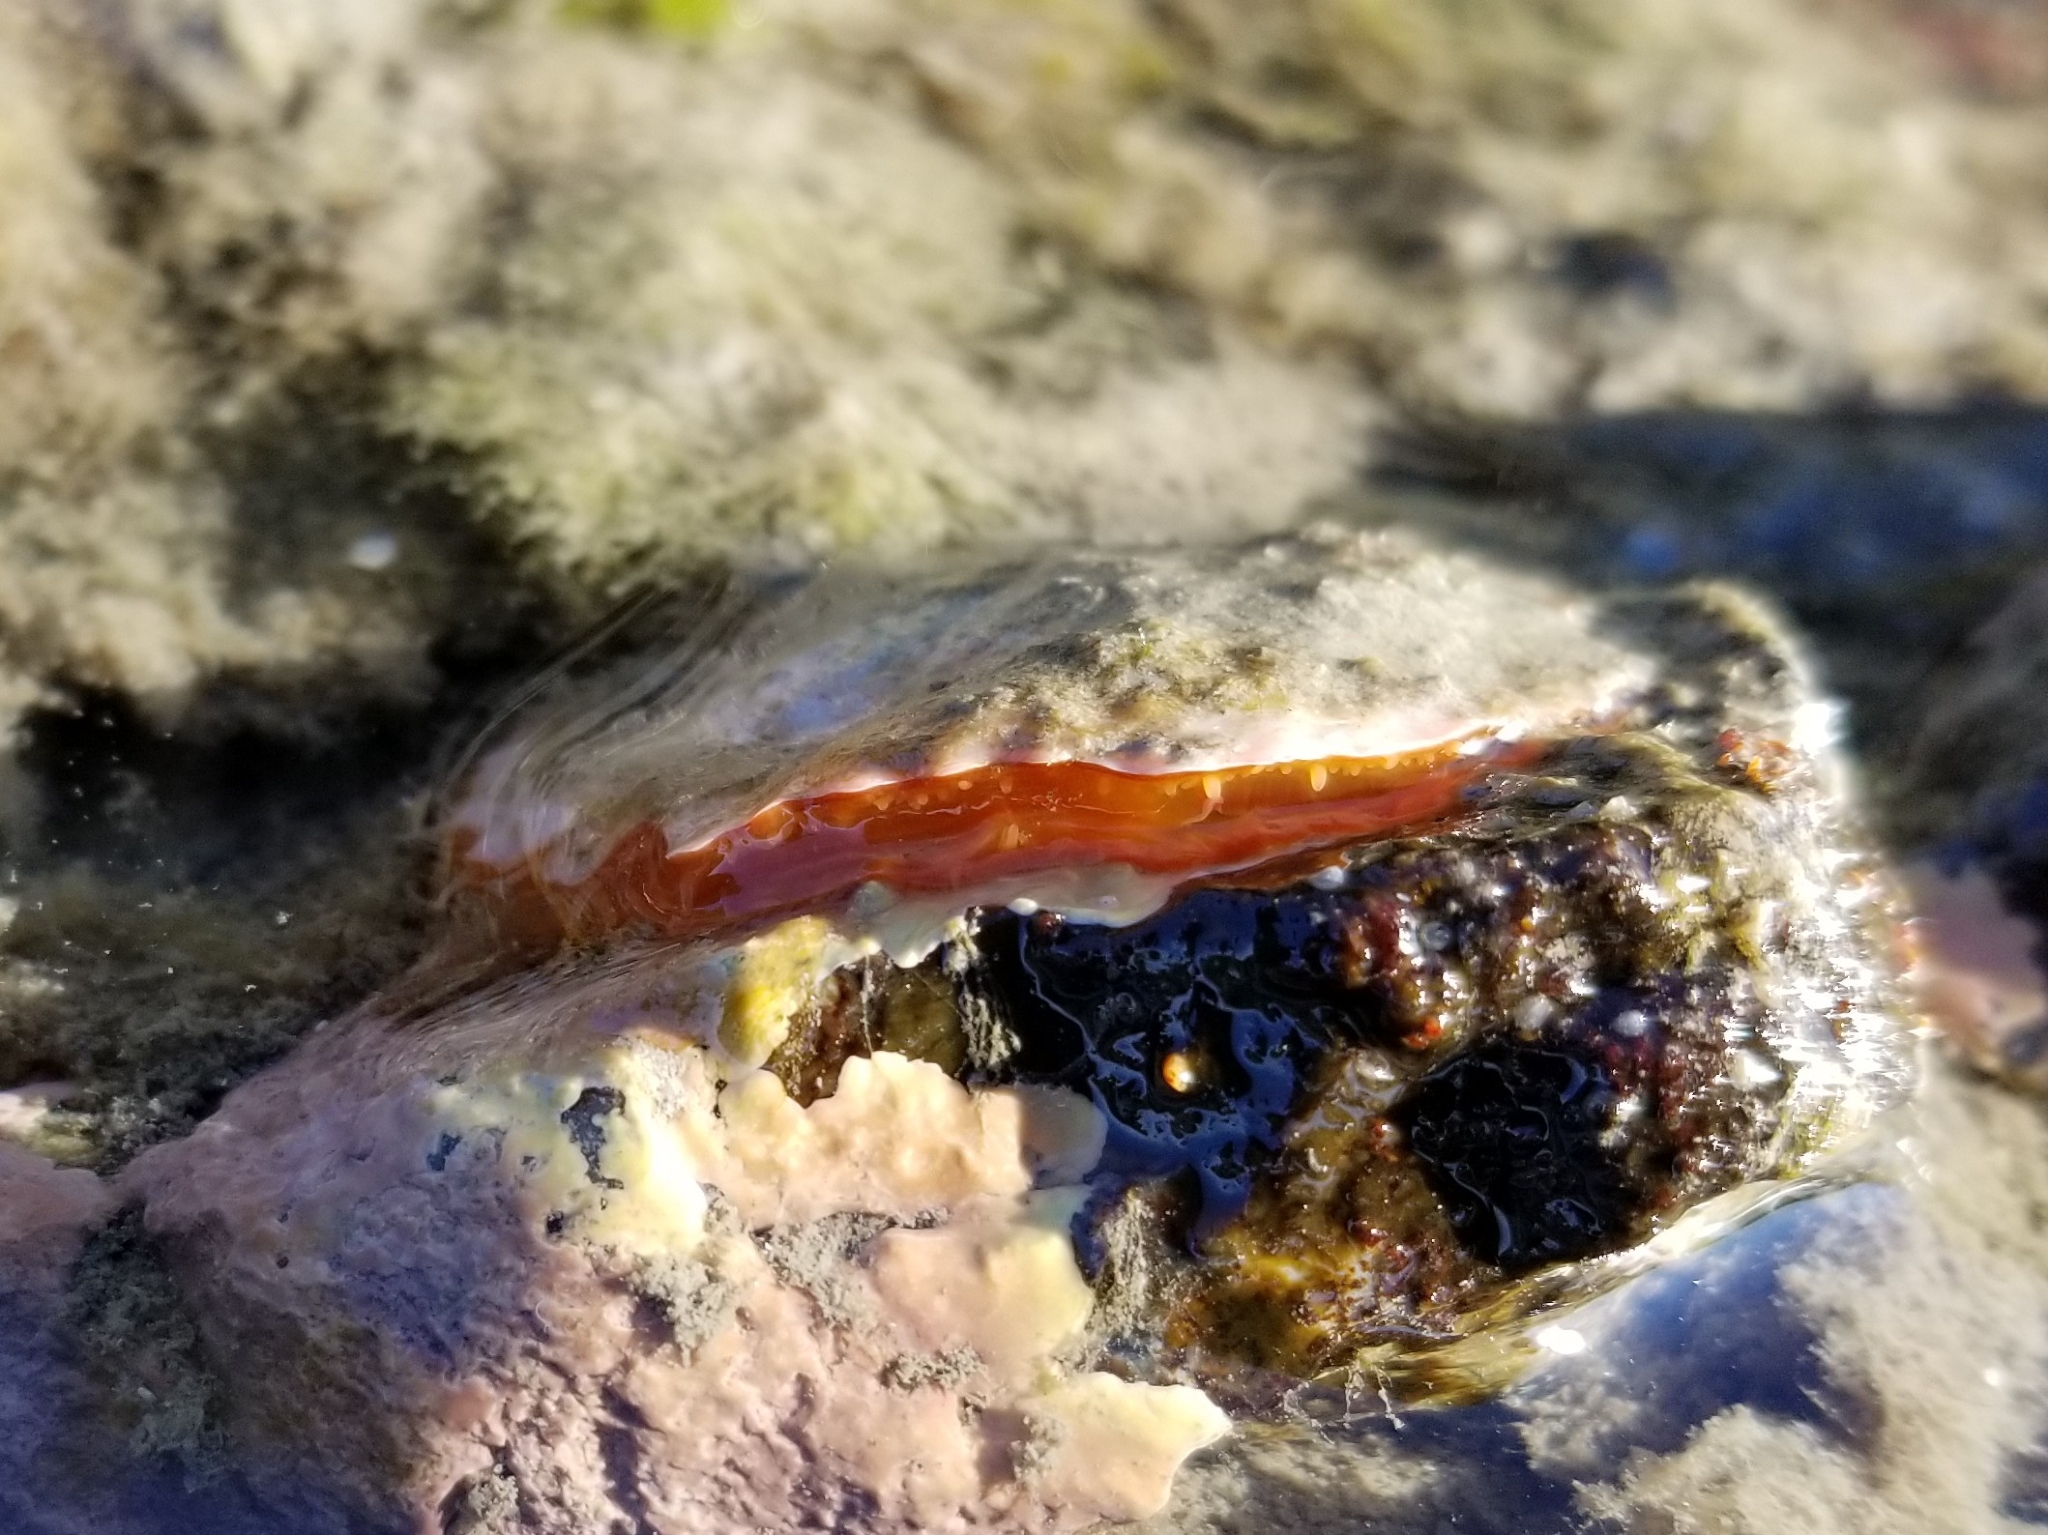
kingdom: Animalia
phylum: Mollusca
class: Bivalvia
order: Pectinida
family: Anomiidae
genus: Pododesmus
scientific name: Pododesmus macrochisma
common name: Alaska jingle
